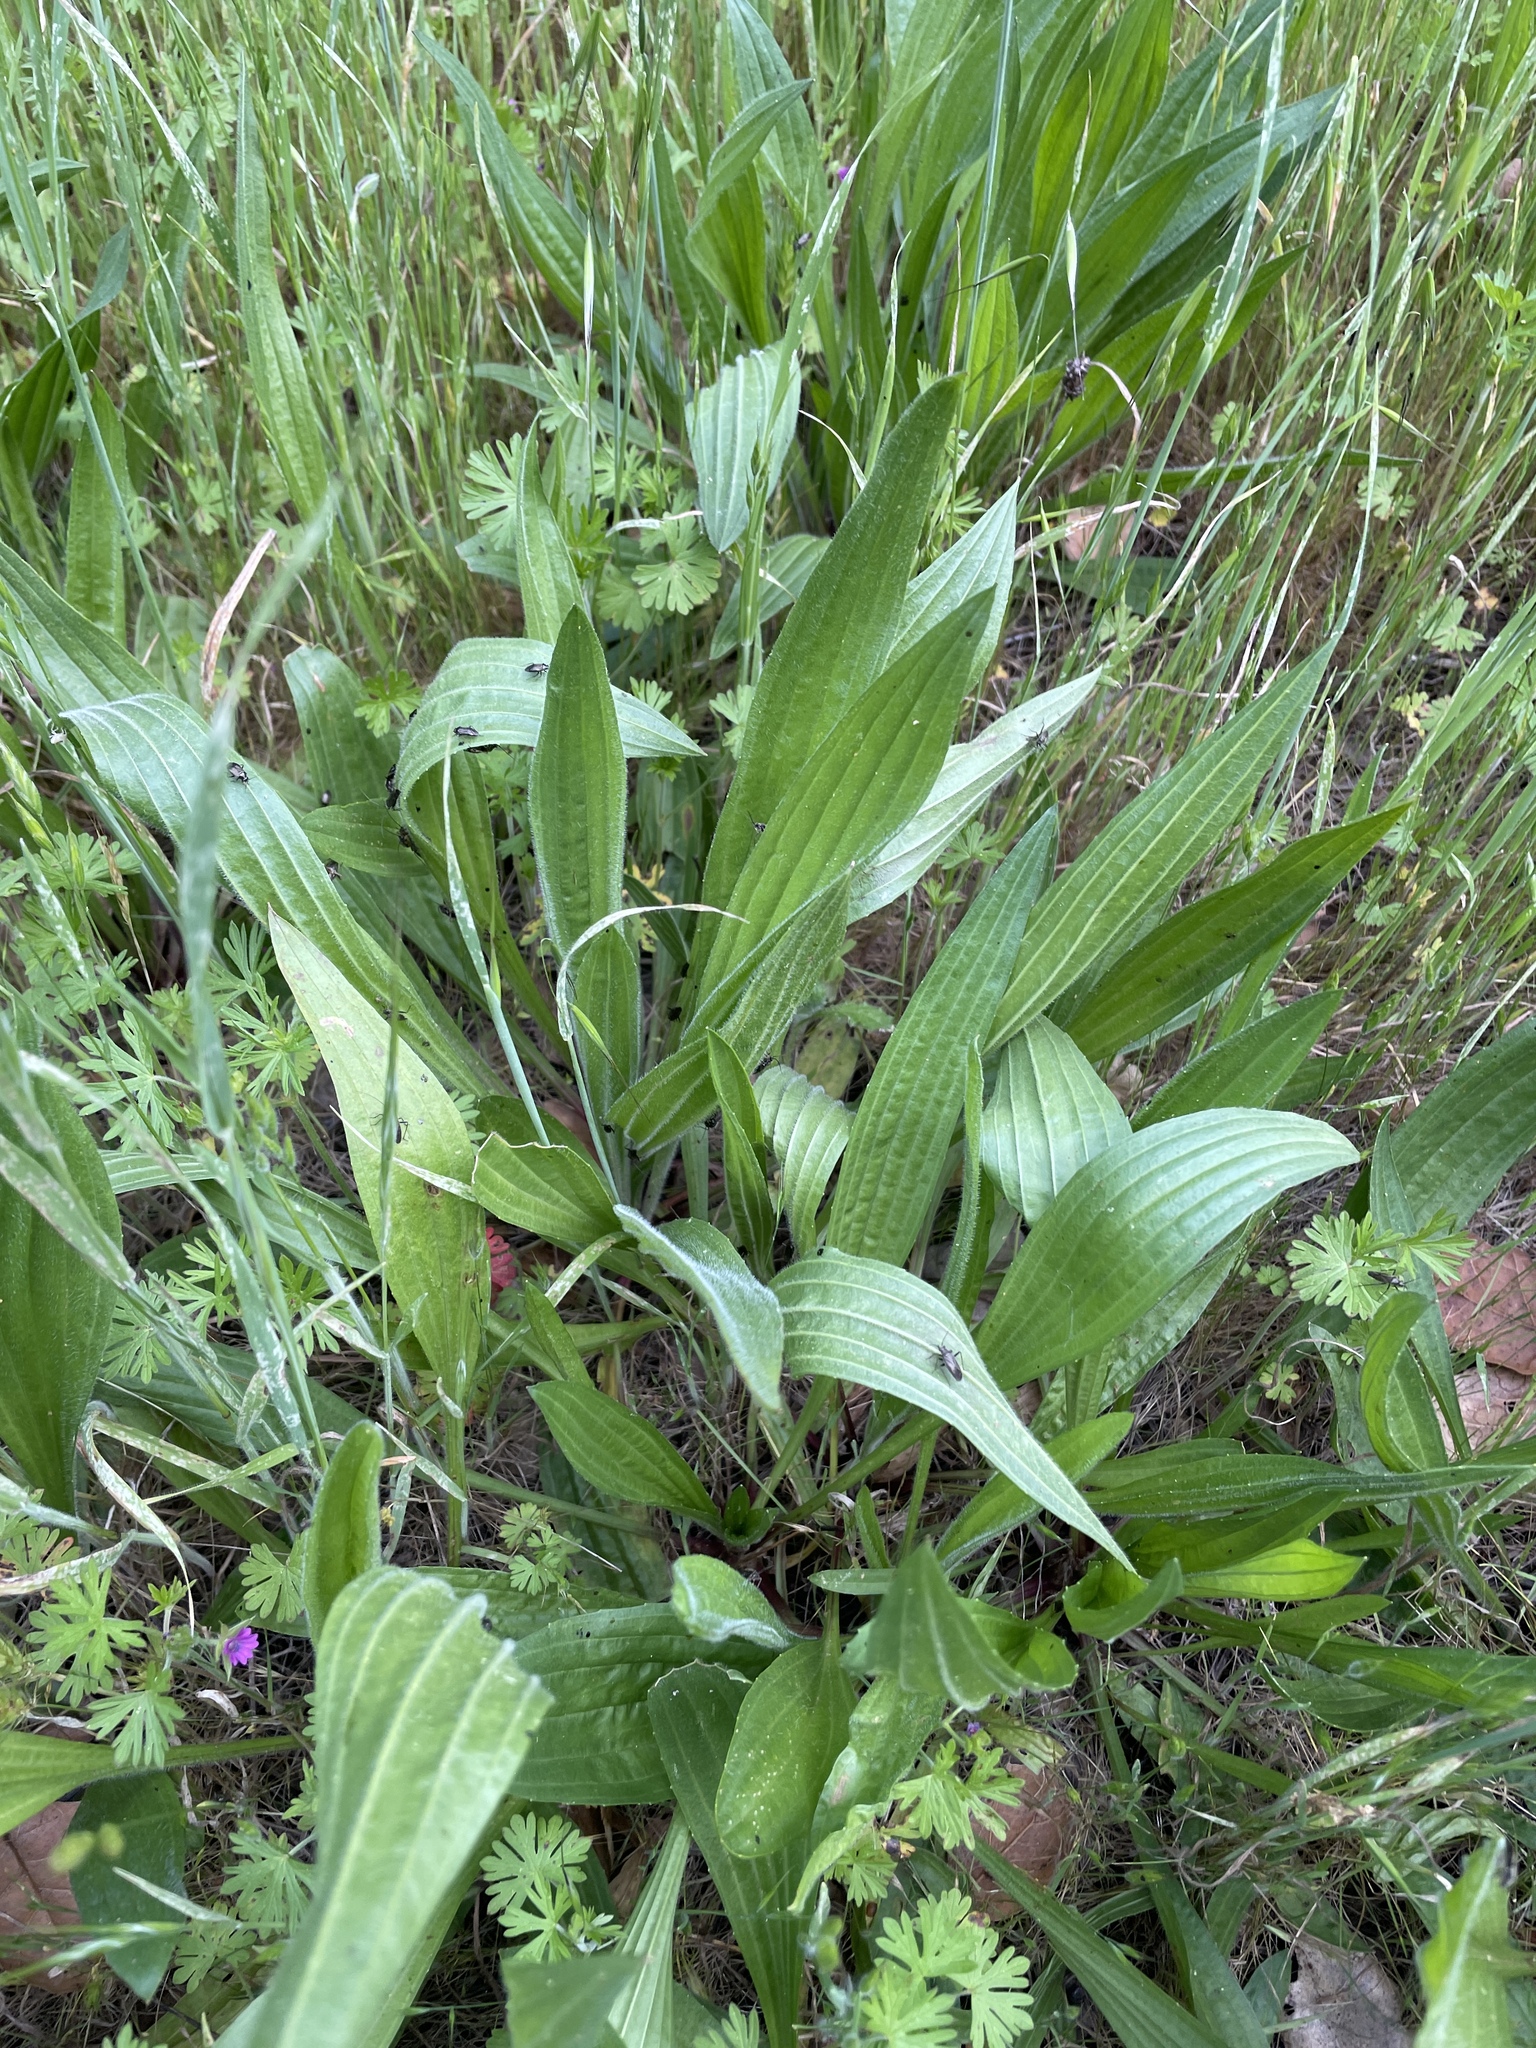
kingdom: Plantae
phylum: Tracheophyta
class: Magnoliopsida
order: Lamiales
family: Plantaginaceae
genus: Plantago
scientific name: Plantago lanceolata
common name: Ribwort plantain
